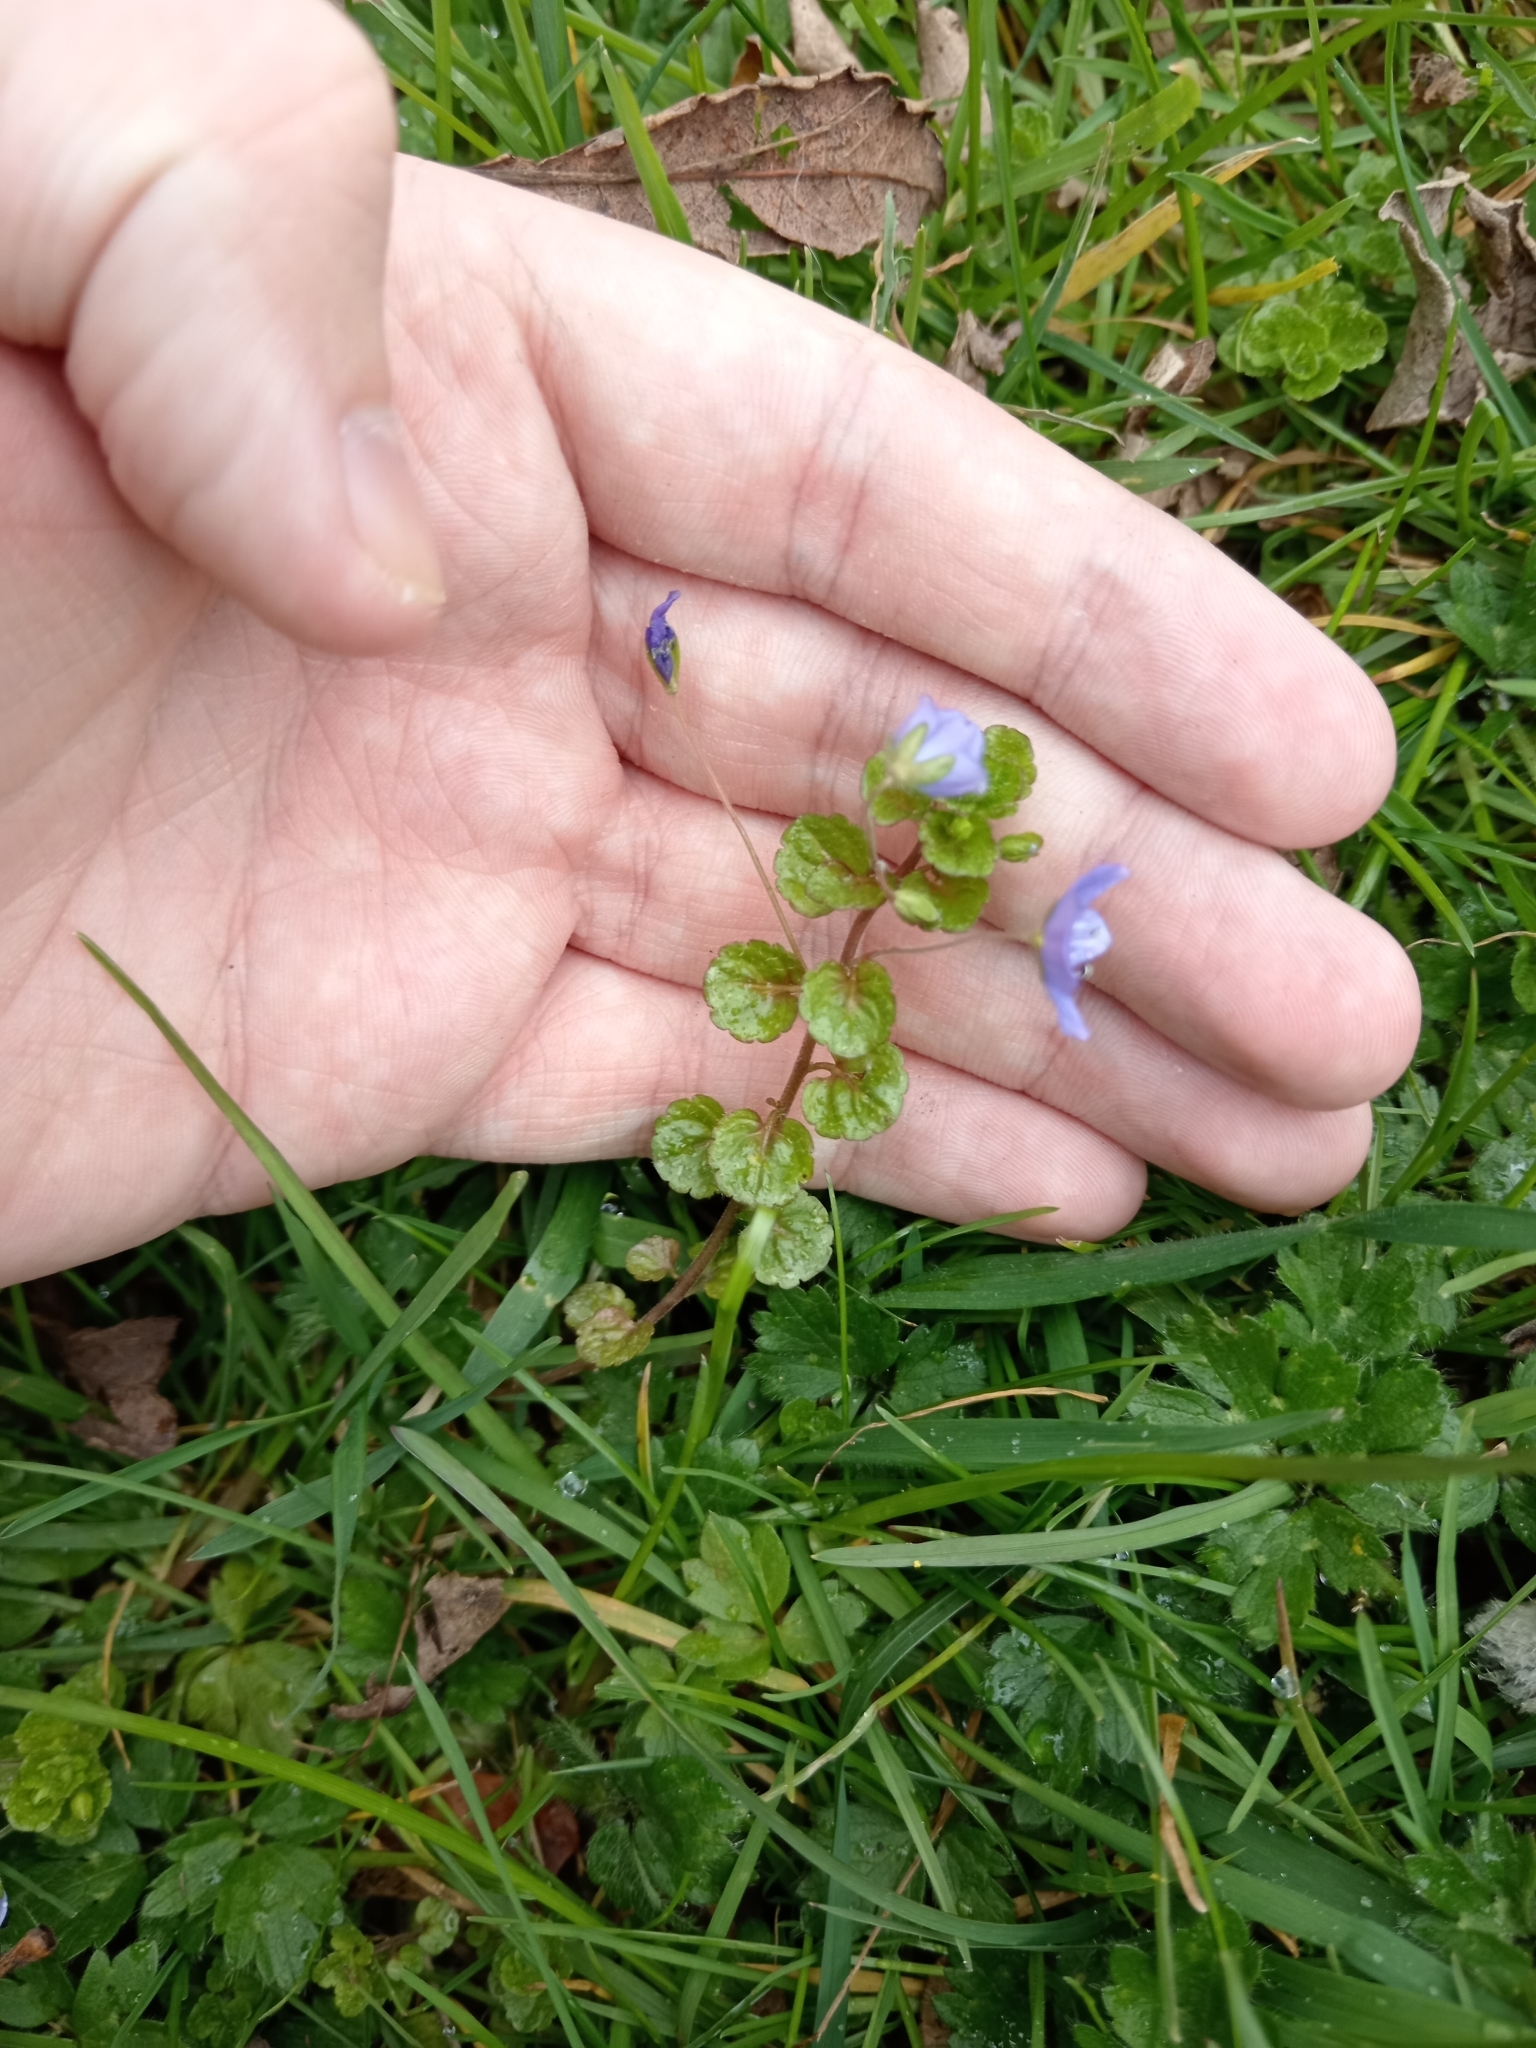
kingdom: Plantae
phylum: Tracheophyta
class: Magnoliopsida
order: Lamiales
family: Plantaginaceae
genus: Veronica
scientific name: Veronica filiformis
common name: Slender speedwell
